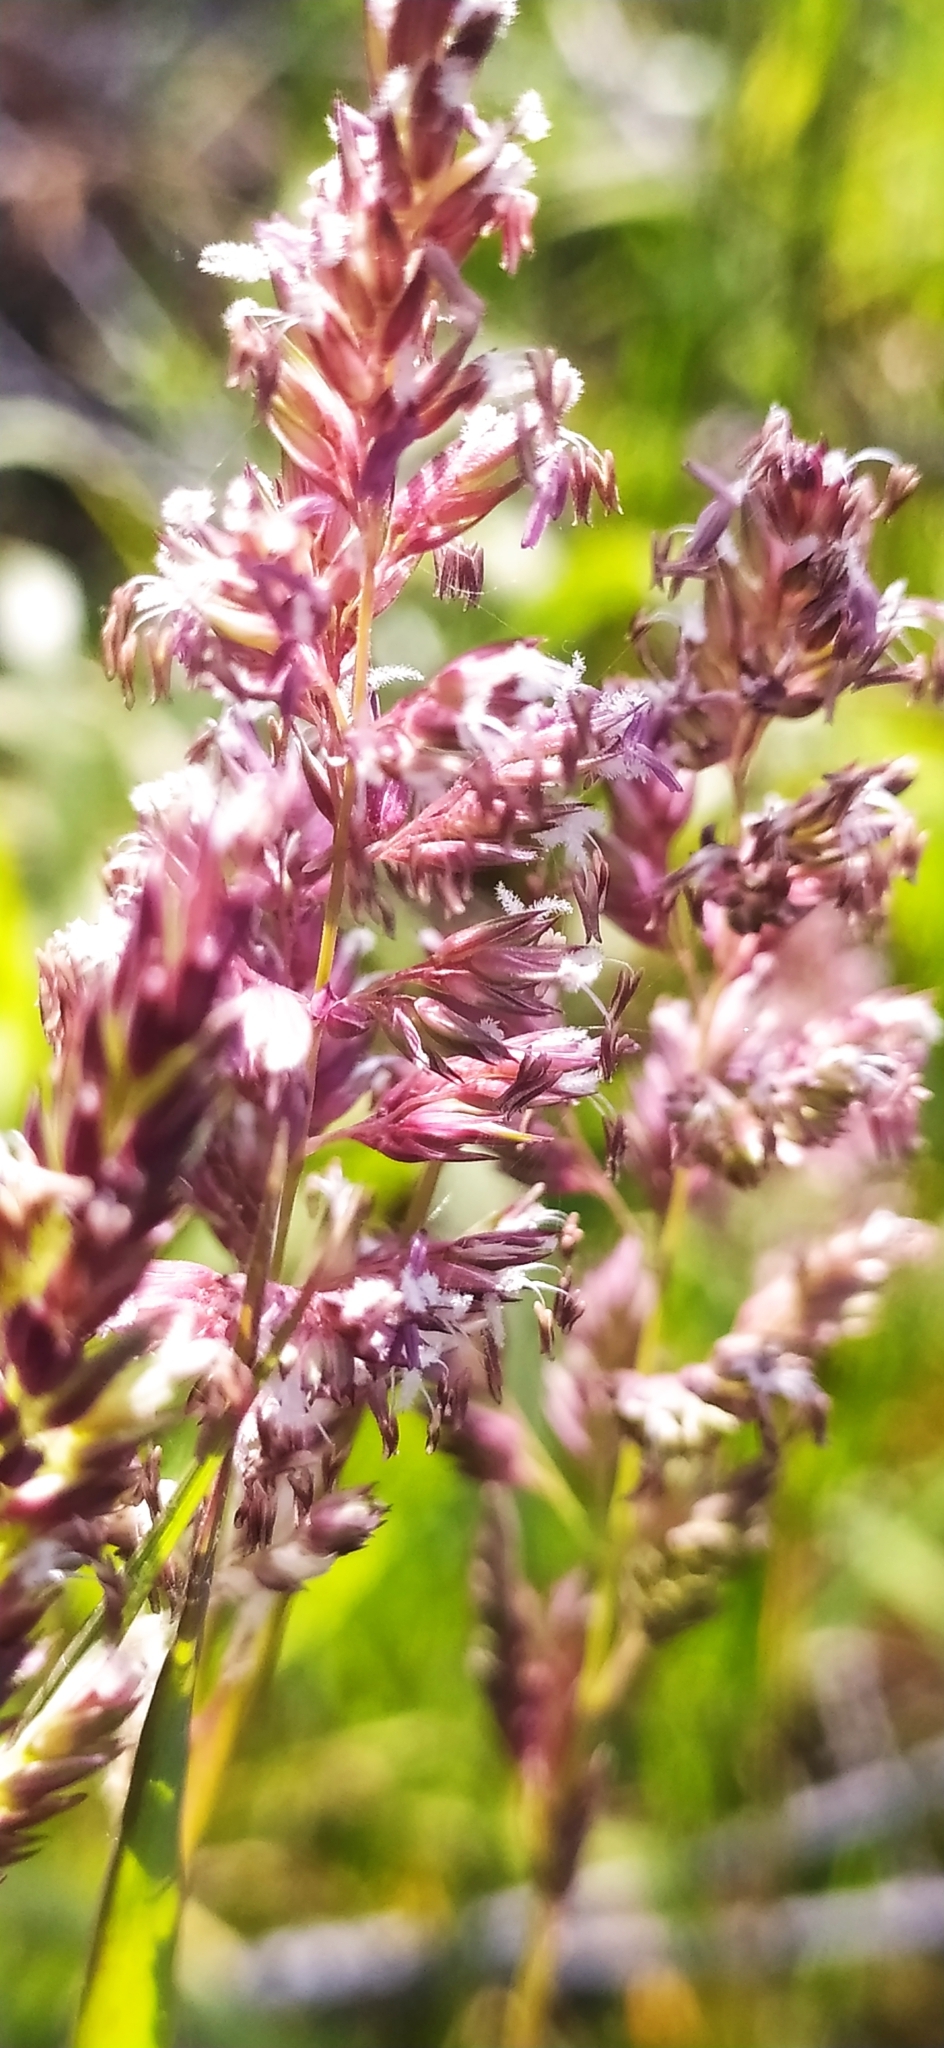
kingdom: Plantae
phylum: Tracheophyta
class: Liliopsida
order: Poales
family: Poaceae
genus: Phalaris
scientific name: Phalaris arundinacea
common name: Reed canary-grass
